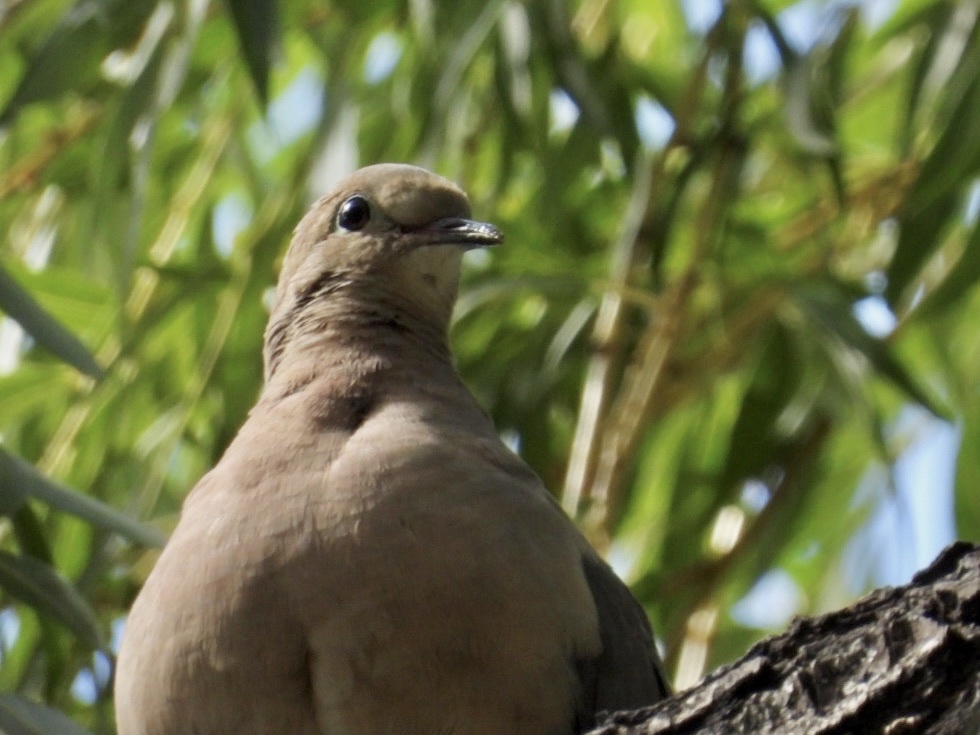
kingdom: Animalia
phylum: Chordata
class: Aves
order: Columbiformes
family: Columbidae
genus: Zenaida
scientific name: Zenaida macroura
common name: Mourning dove
